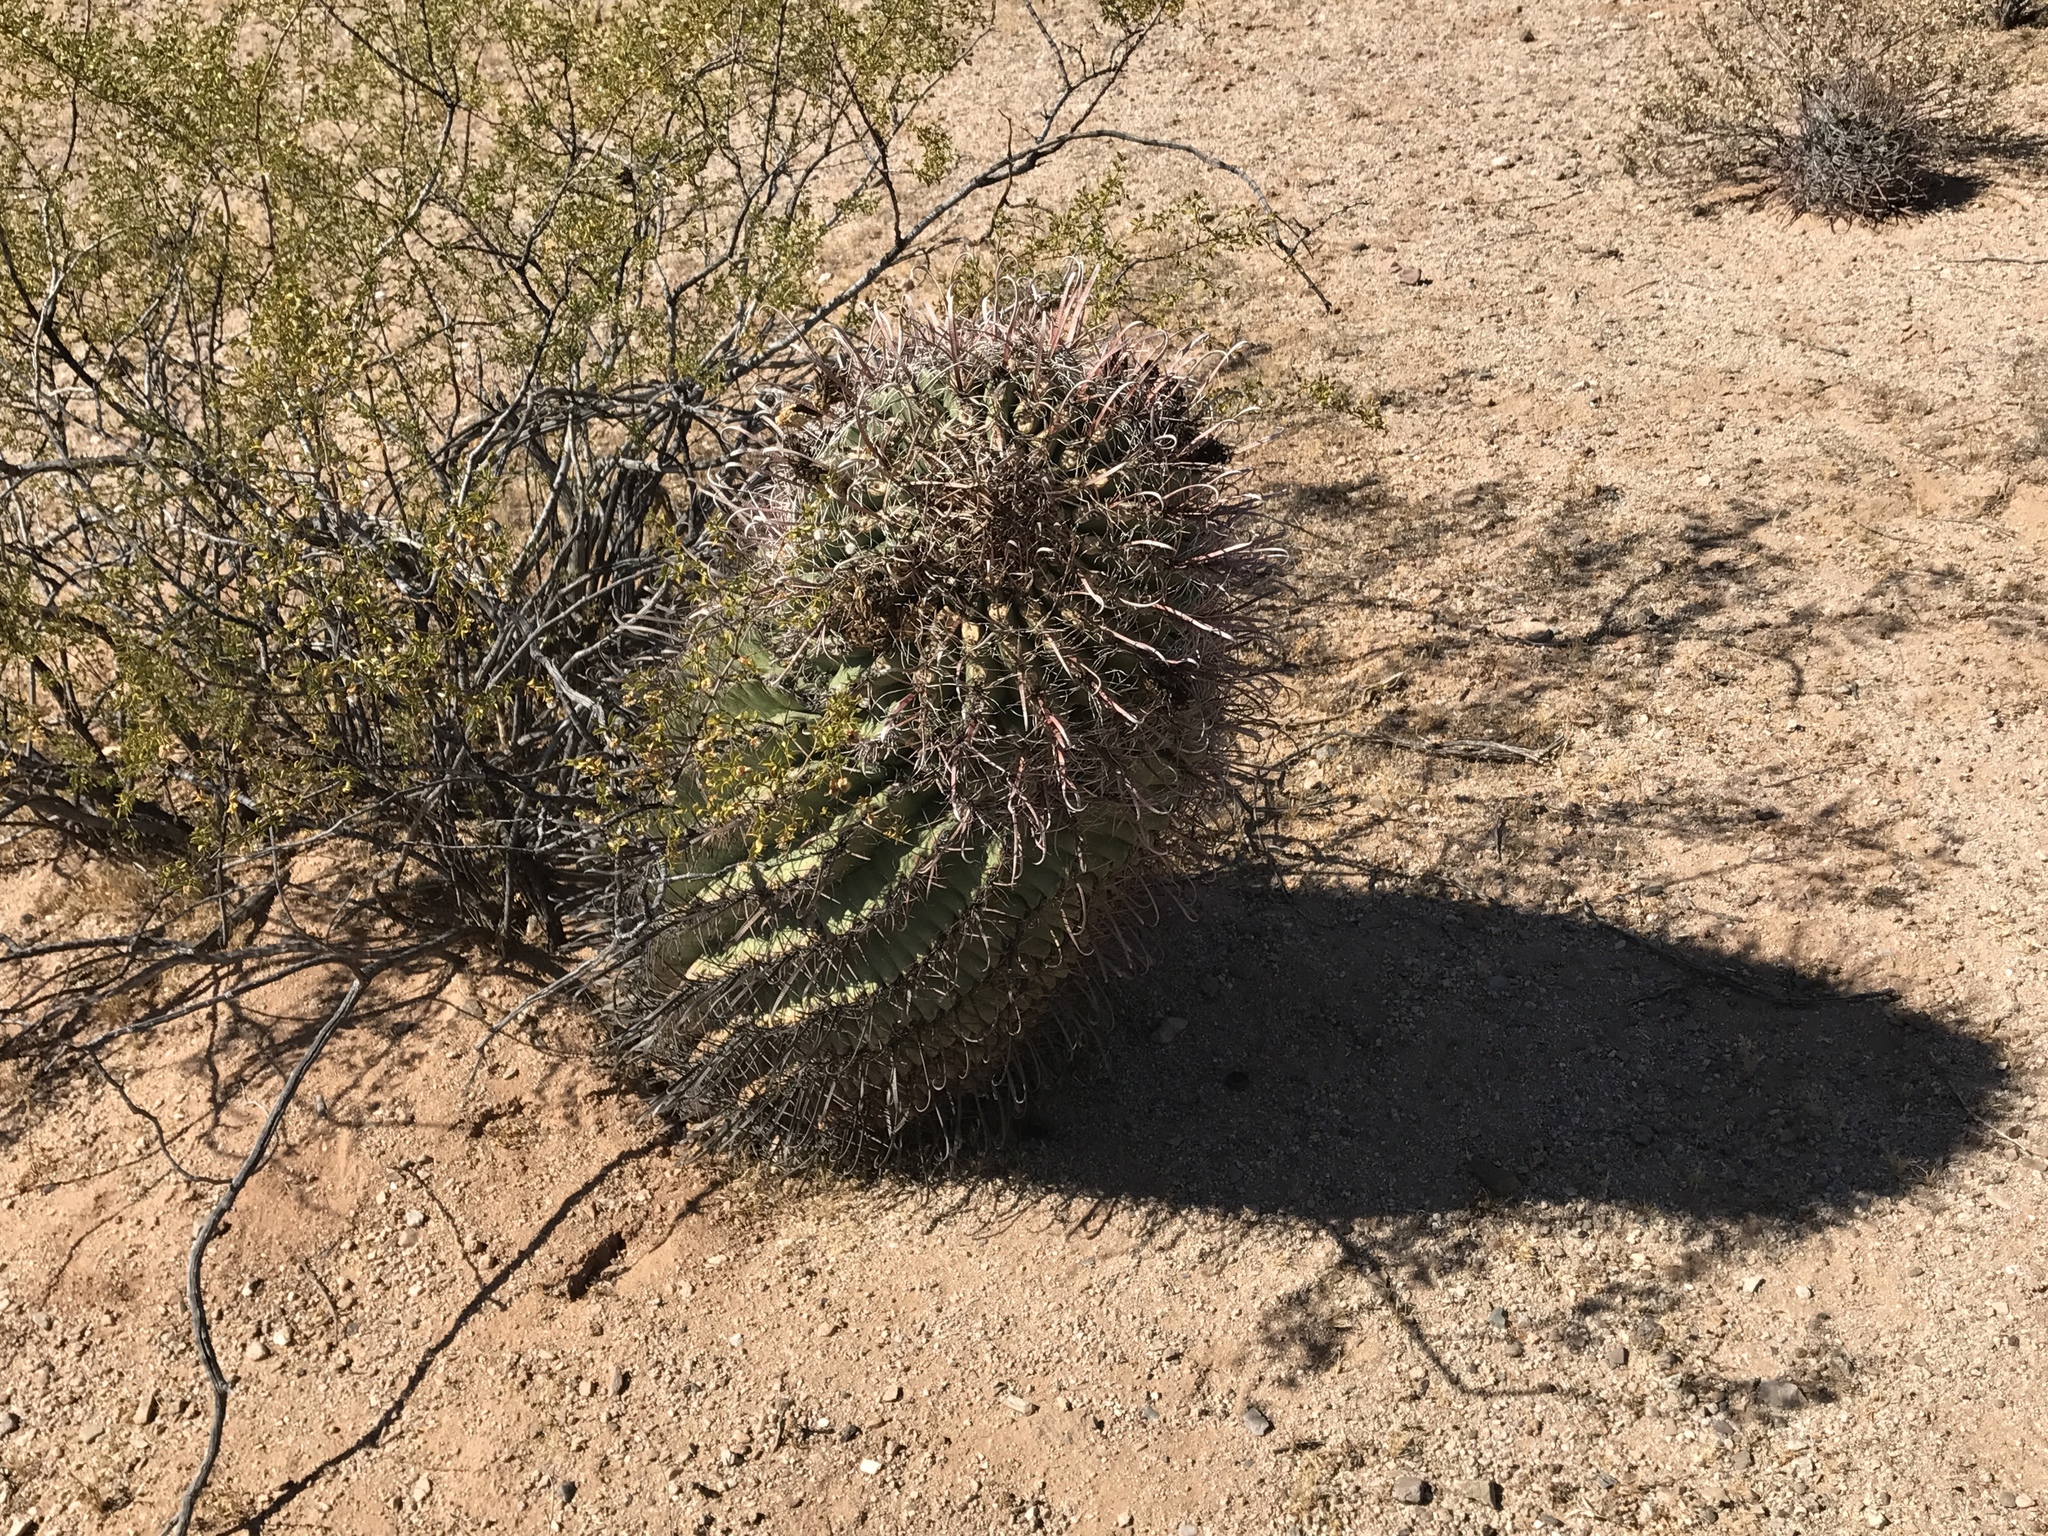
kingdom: Plantae
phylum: Tracheophyta
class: Magnoliopsida
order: Caryophyllales
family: Cactaceae
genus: Ferocactus
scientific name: Ferocactus wislizeni
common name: Candy barrel cactus
